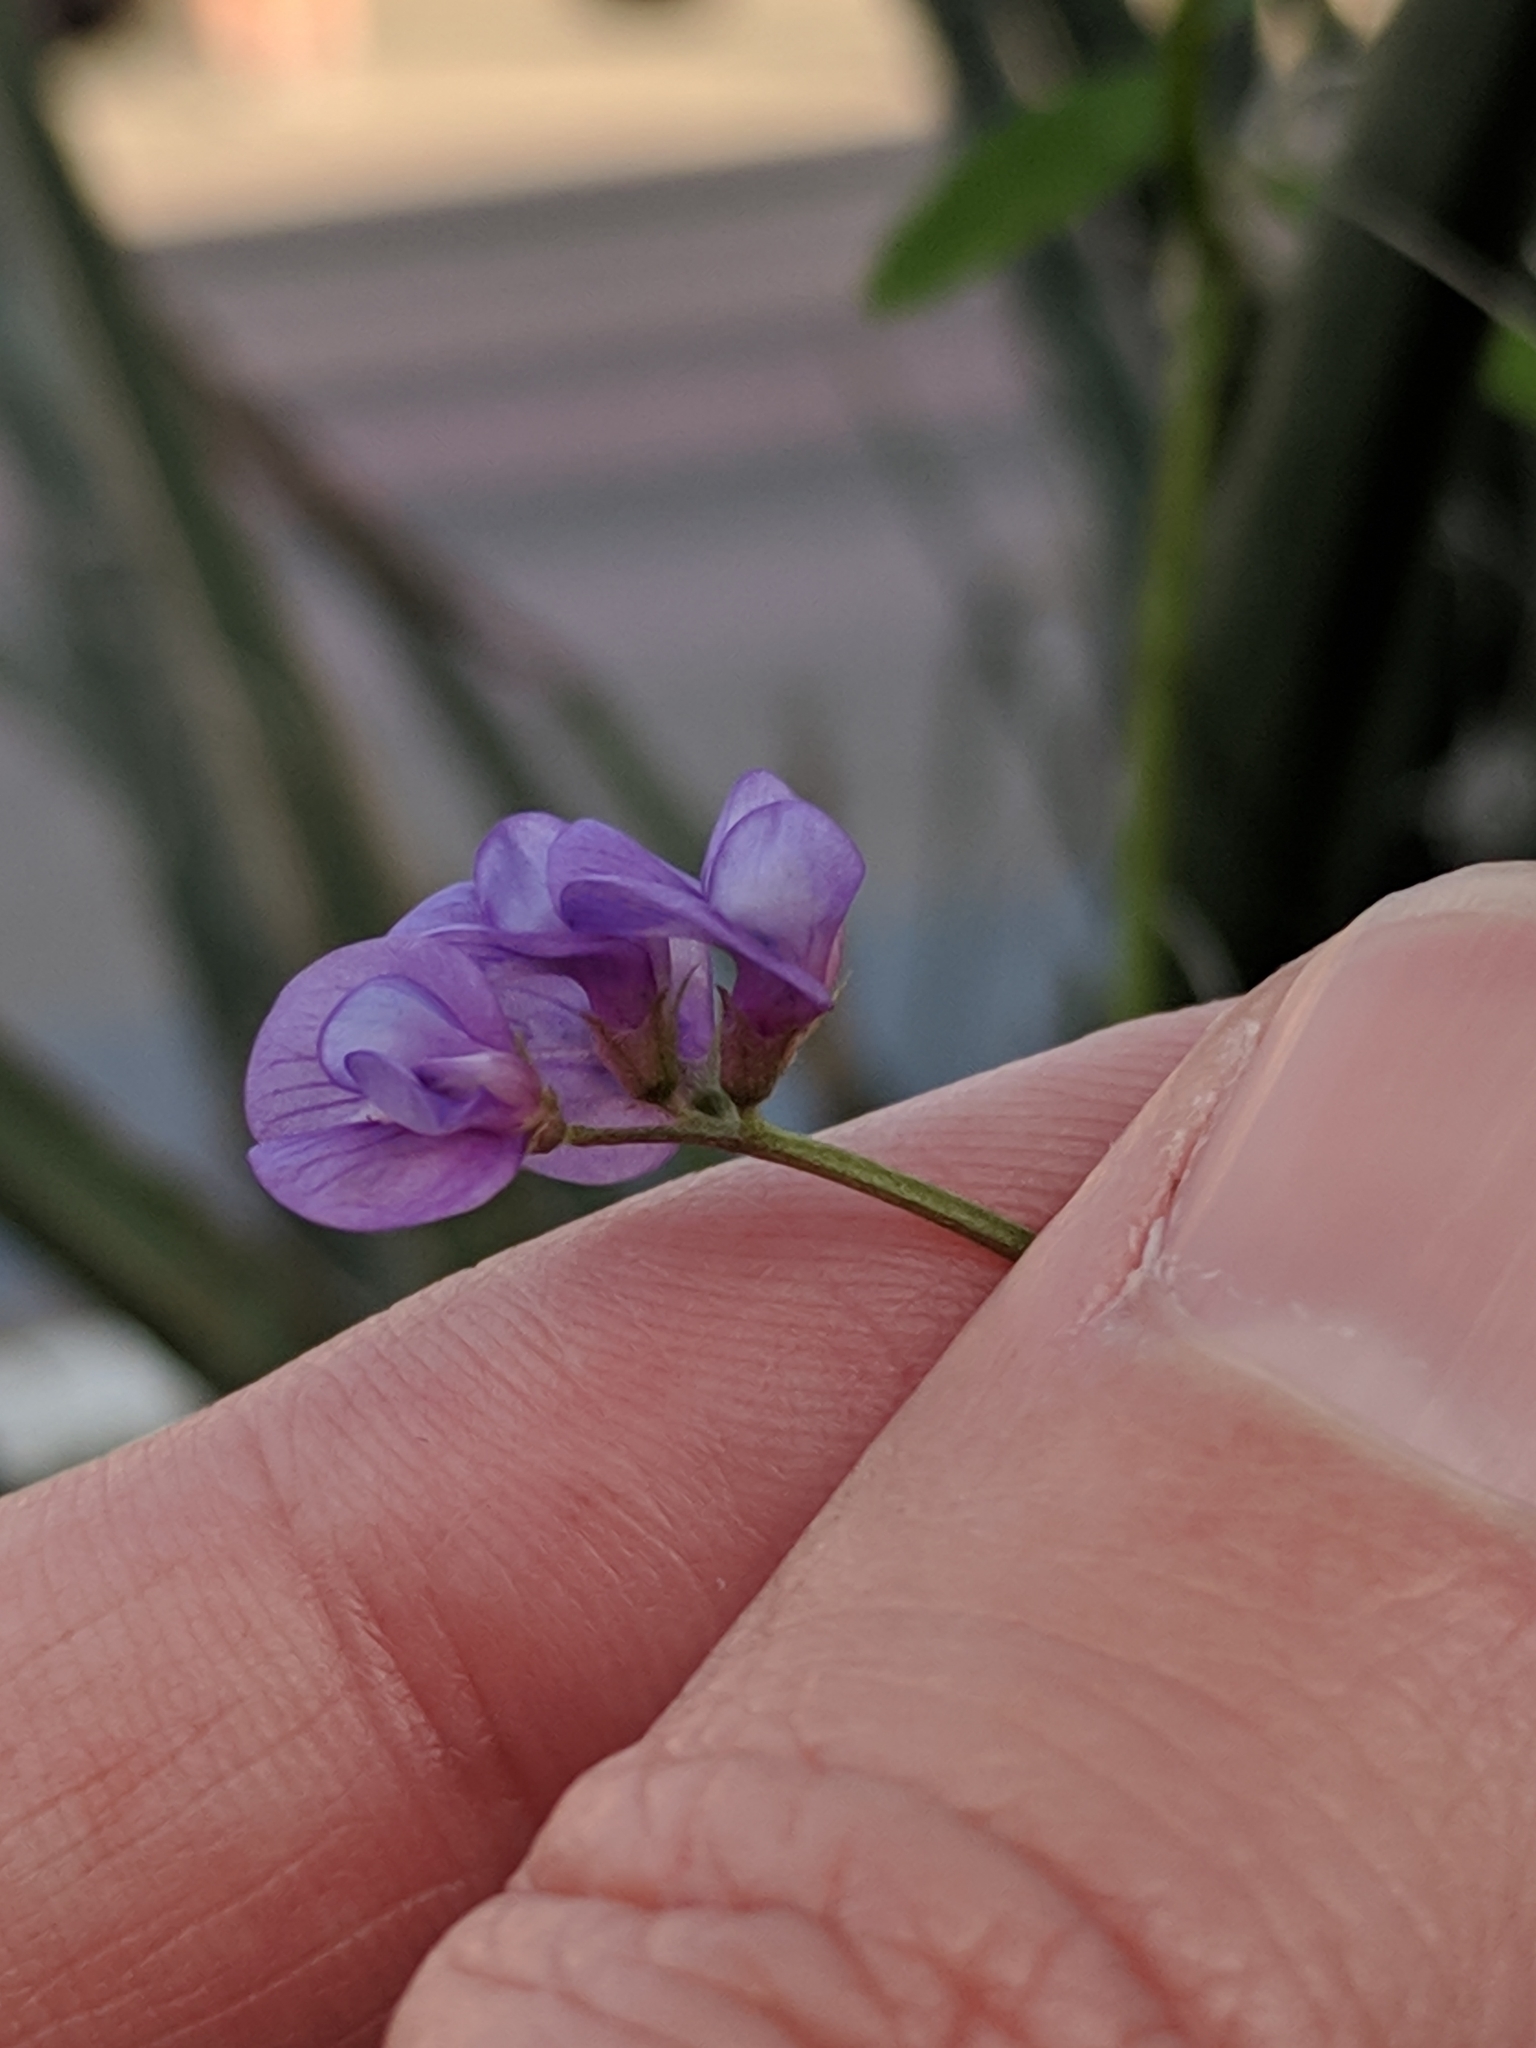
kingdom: Plantae
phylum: Tracheophyta
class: Magnoliopsida
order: Fabales
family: Fabaceae
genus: Vicia
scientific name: Vicia ludoviciana
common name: Louisiana vetch
